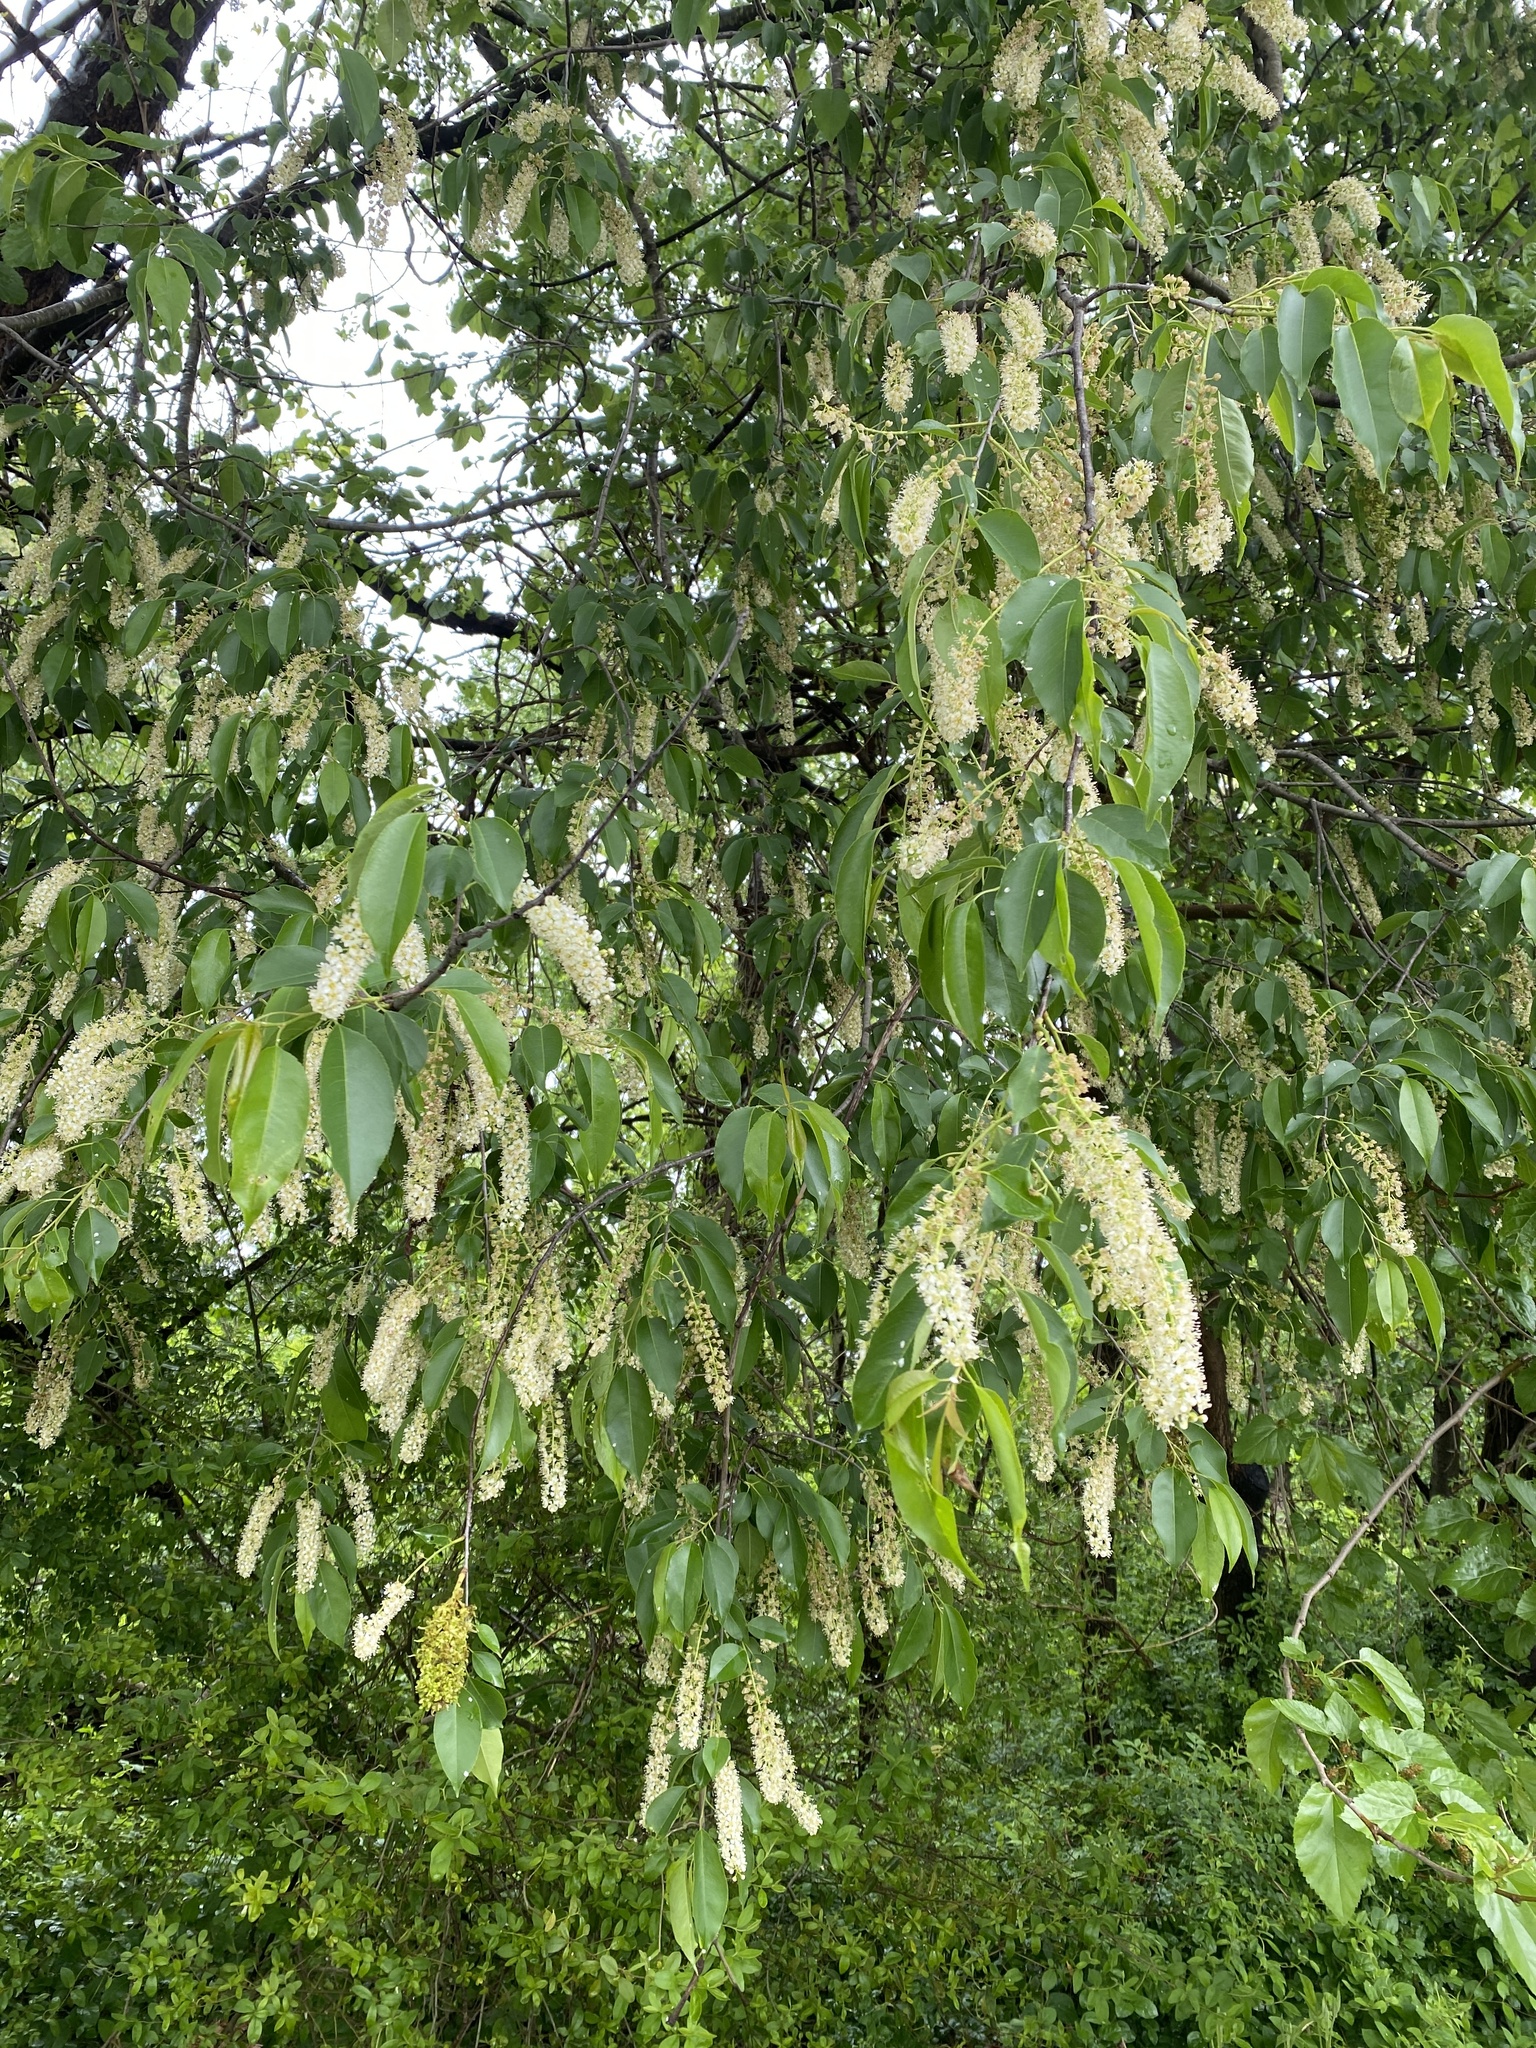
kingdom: Plantae
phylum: Tracheophyta
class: Magnoliopsida
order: Rosales
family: Rosaceae
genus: Prunus
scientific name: Prunus serotina
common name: Black cherry
